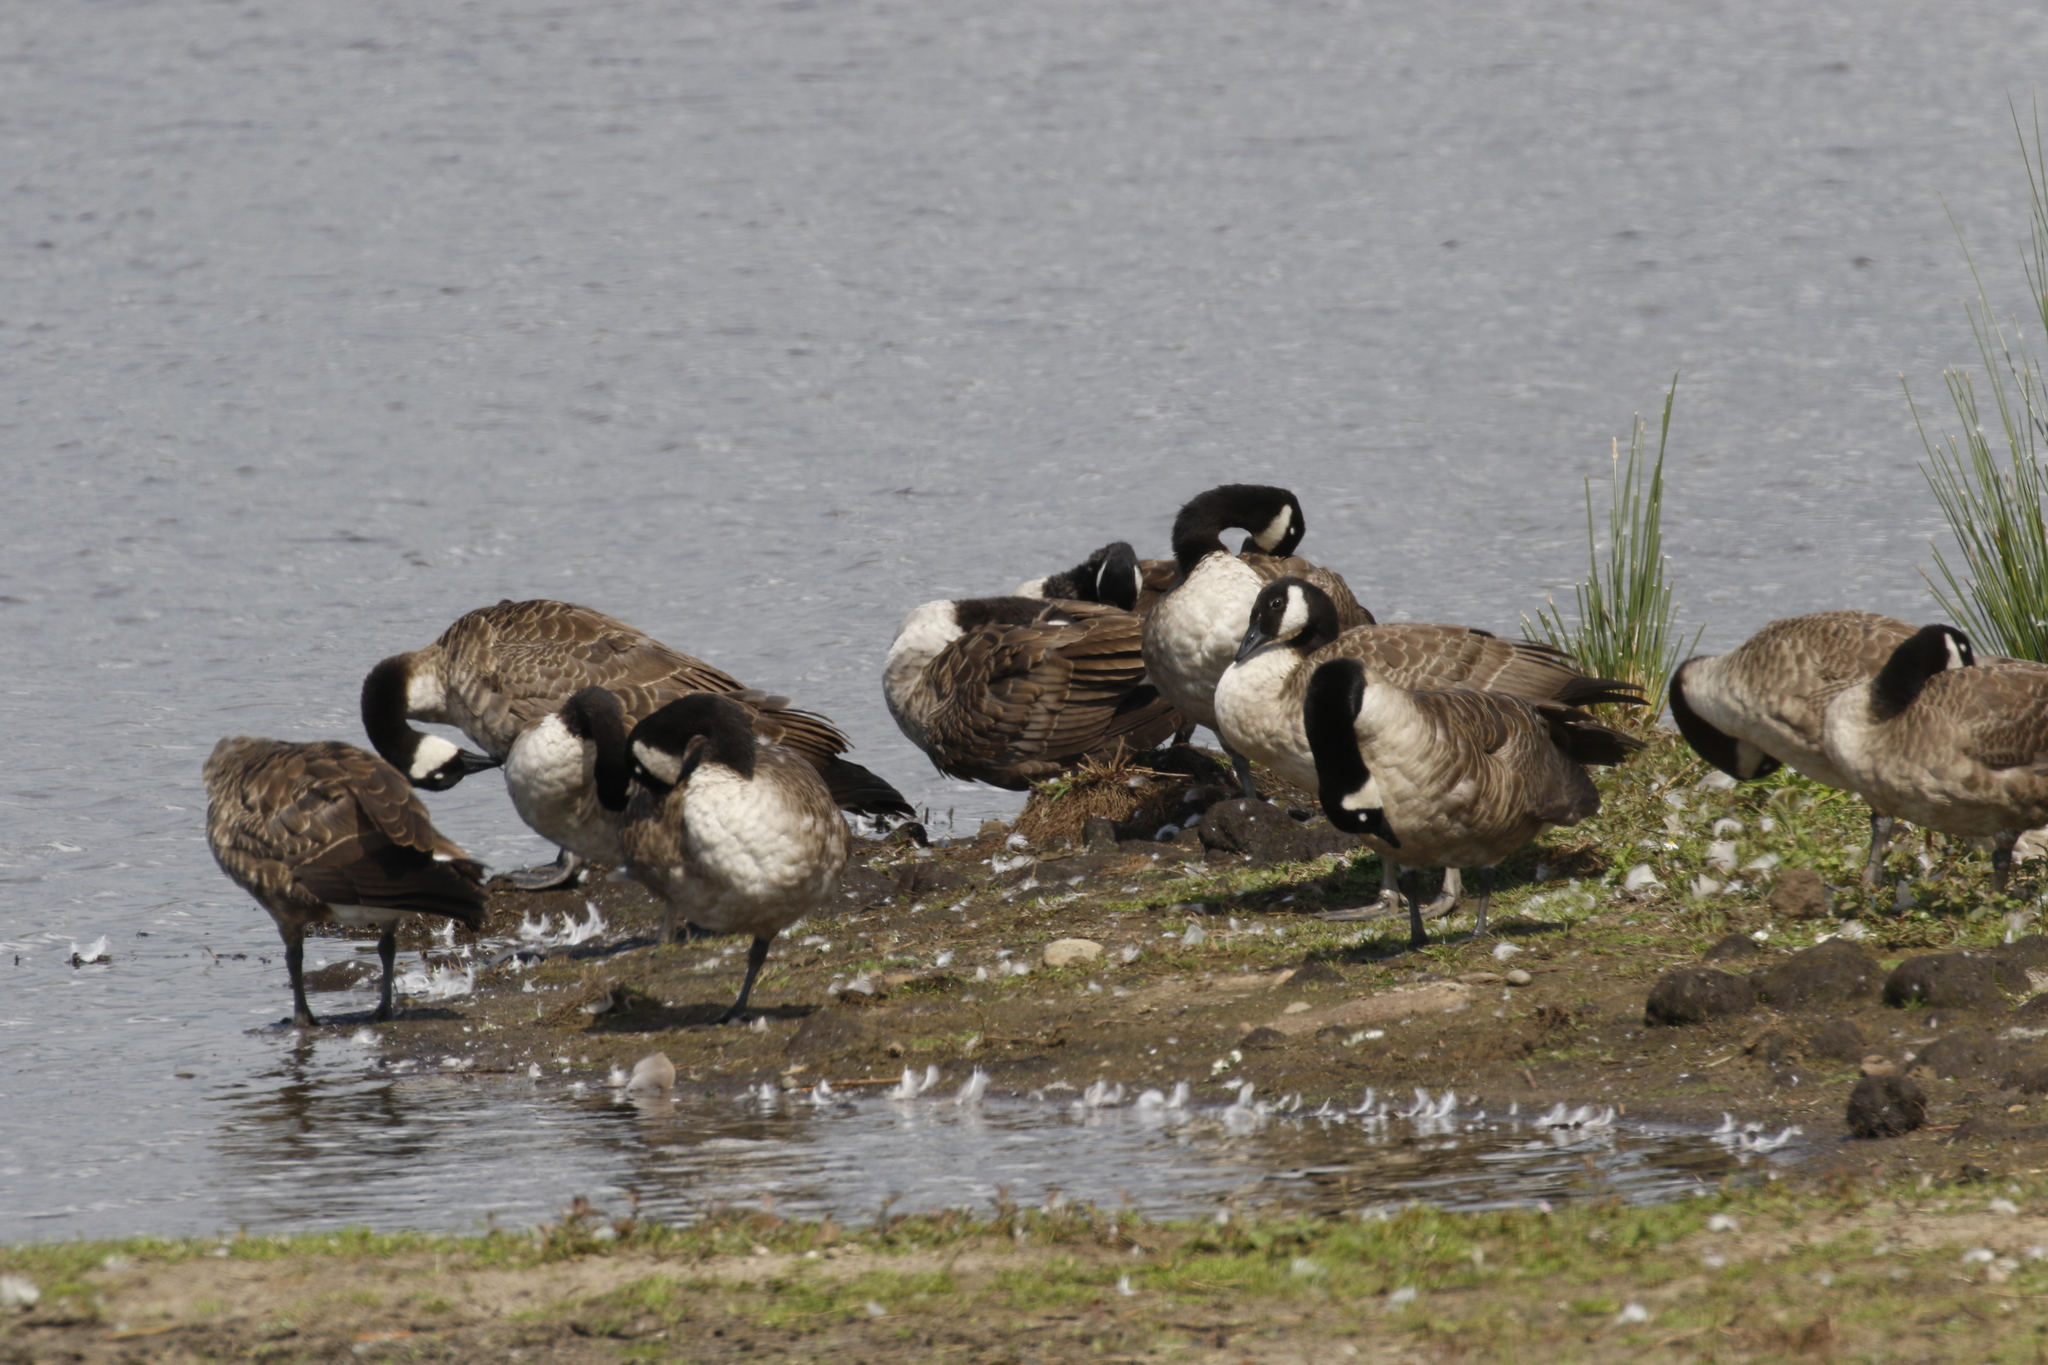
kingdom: Animalia
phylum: Chordata
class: Aves
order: Anseriformes
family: Anatidae
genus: Branta
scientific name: Branta canadensis
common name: Canada goose
